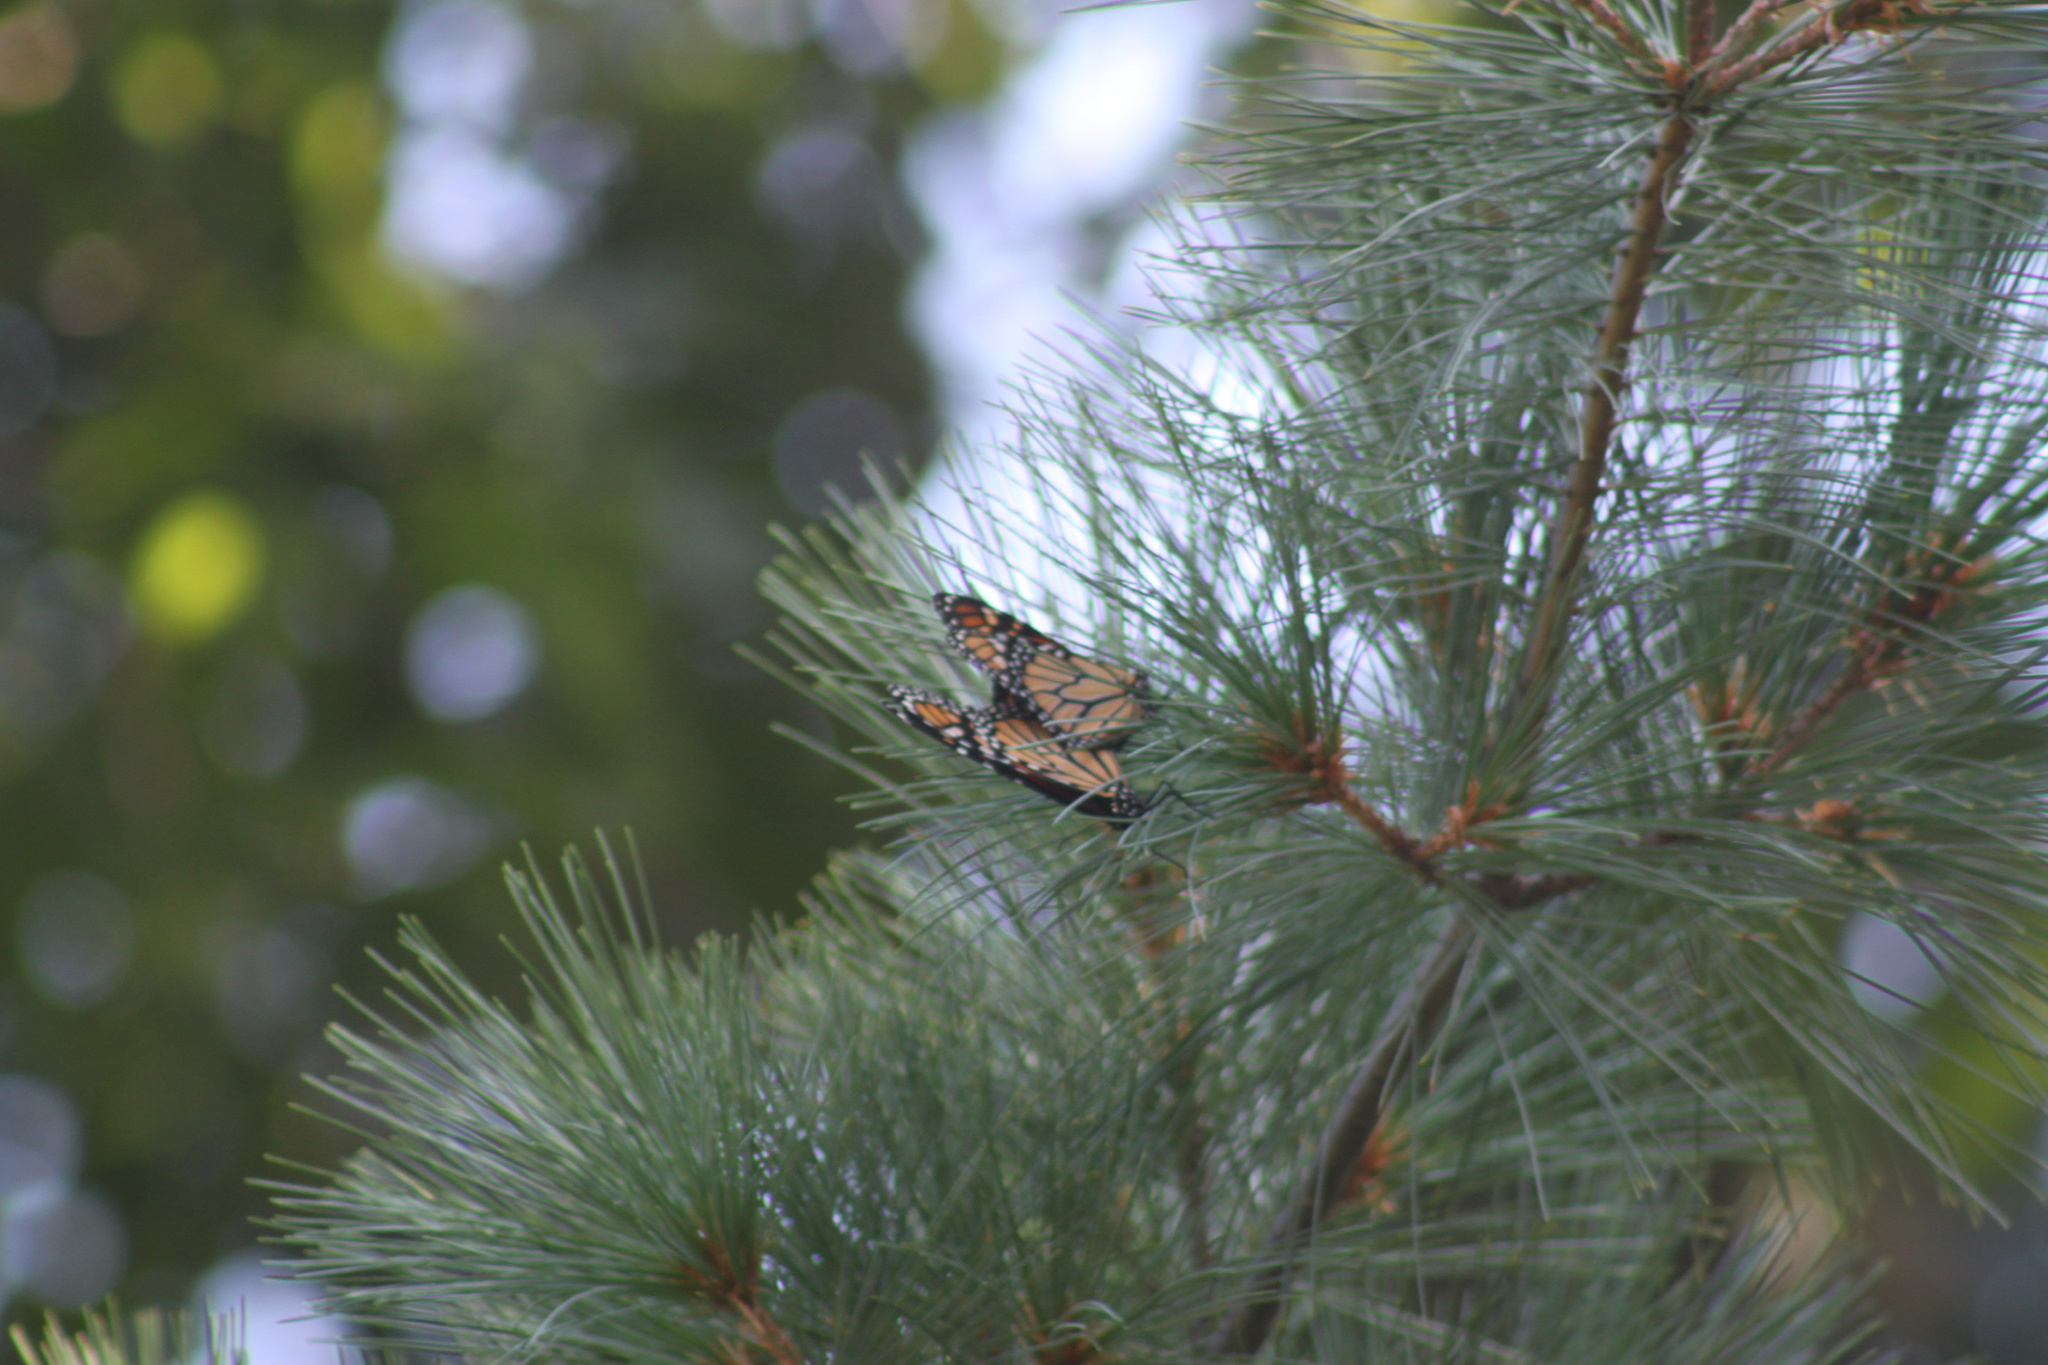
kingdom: Animalia
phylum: Arthropoda
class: Insecta
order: Lepidoptera
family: Nymphalidae
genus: Danaus
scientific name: Danaus plexippus
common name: Monarch
